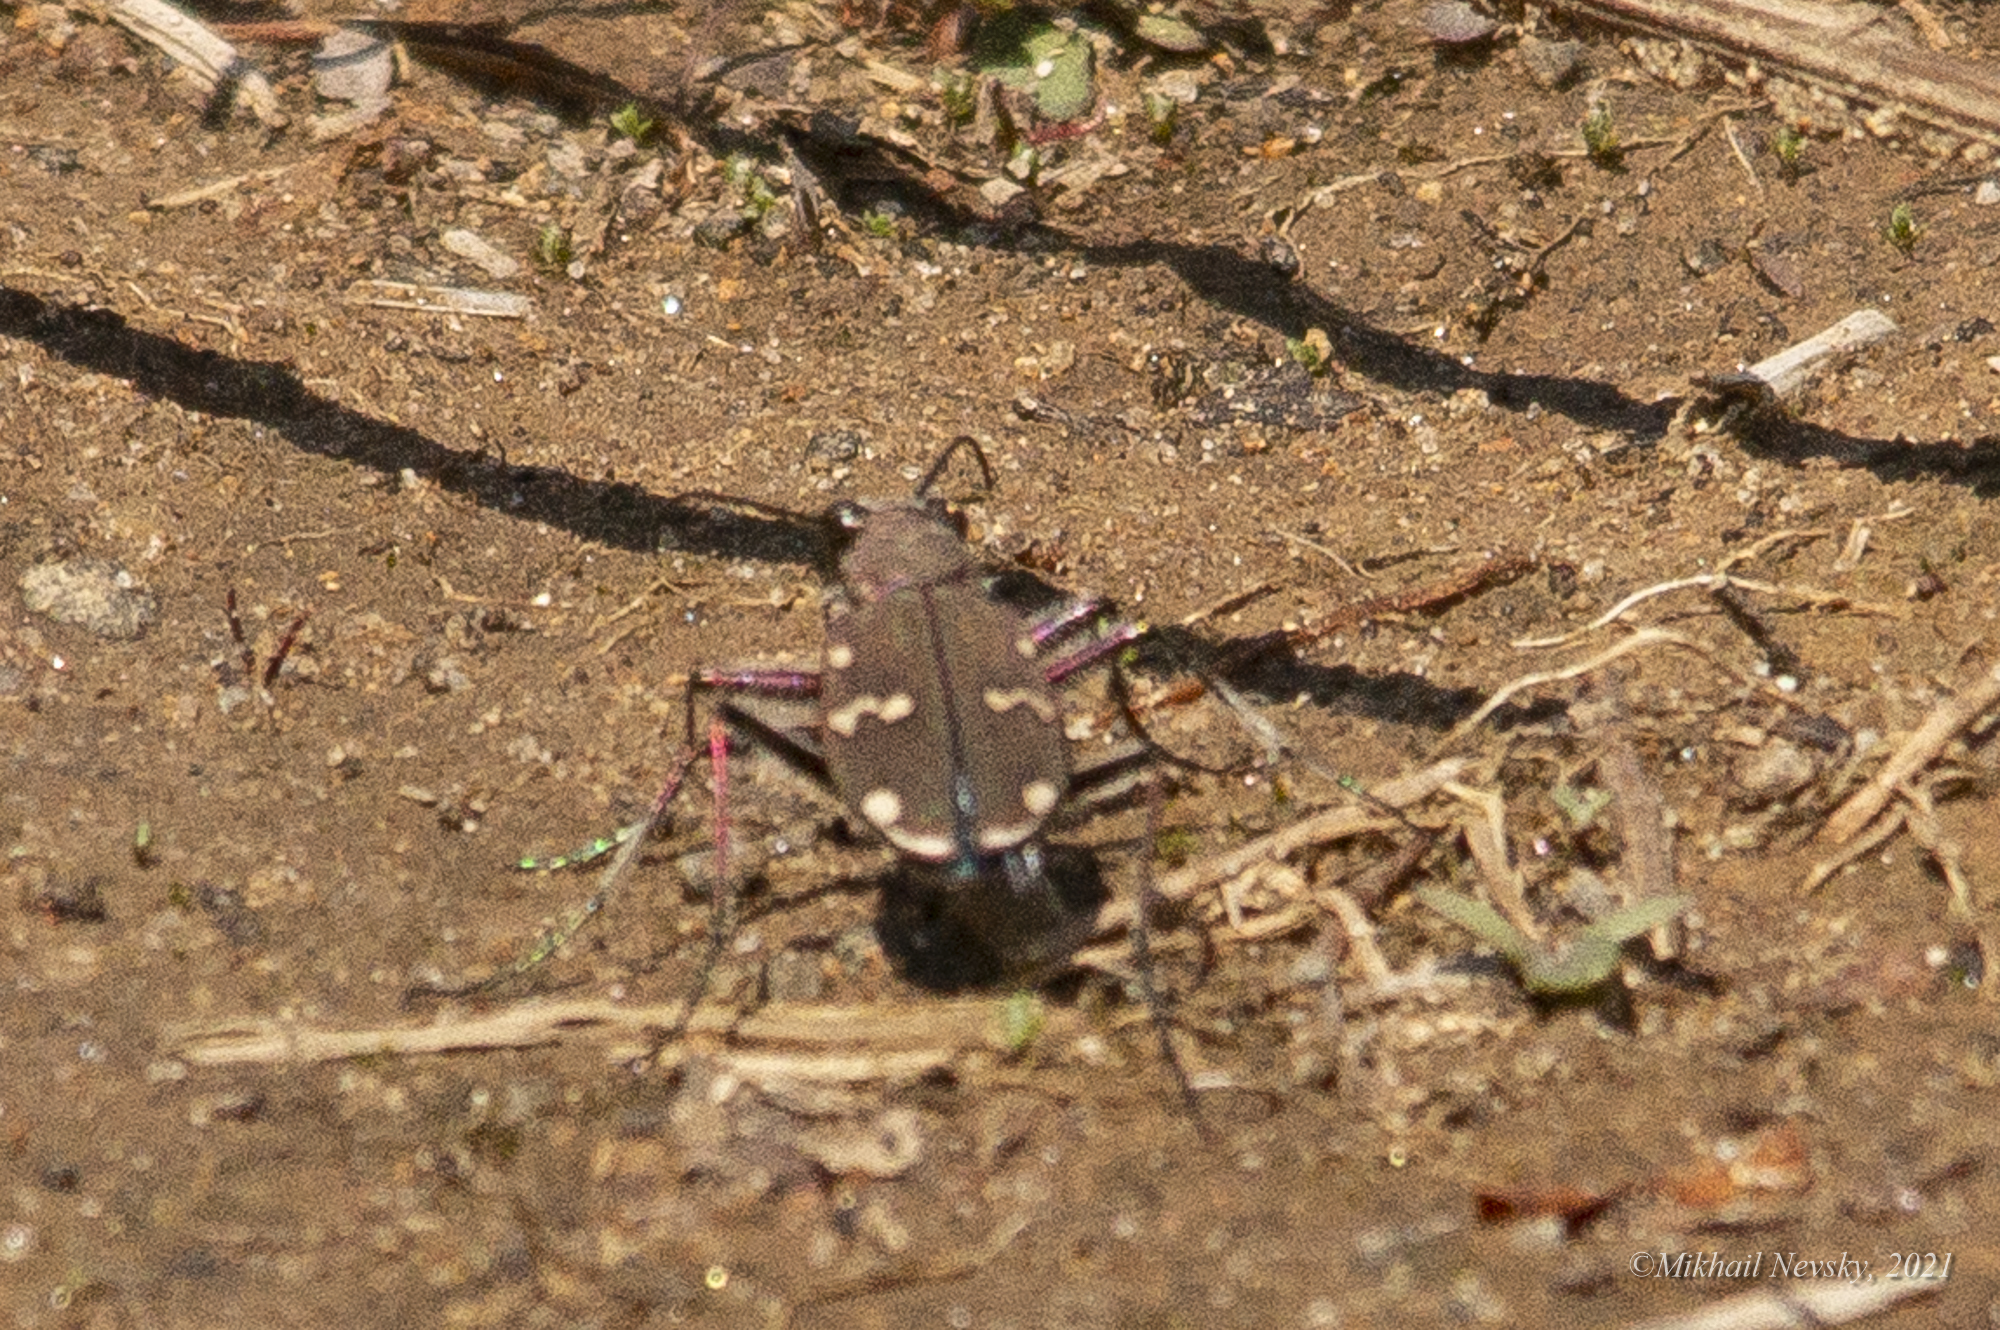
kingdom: Animalia
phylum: Arthropoda
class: Insecta
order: Coleoptera
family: Carabidae
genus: Cicindela
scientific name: Cicindela gemmata
